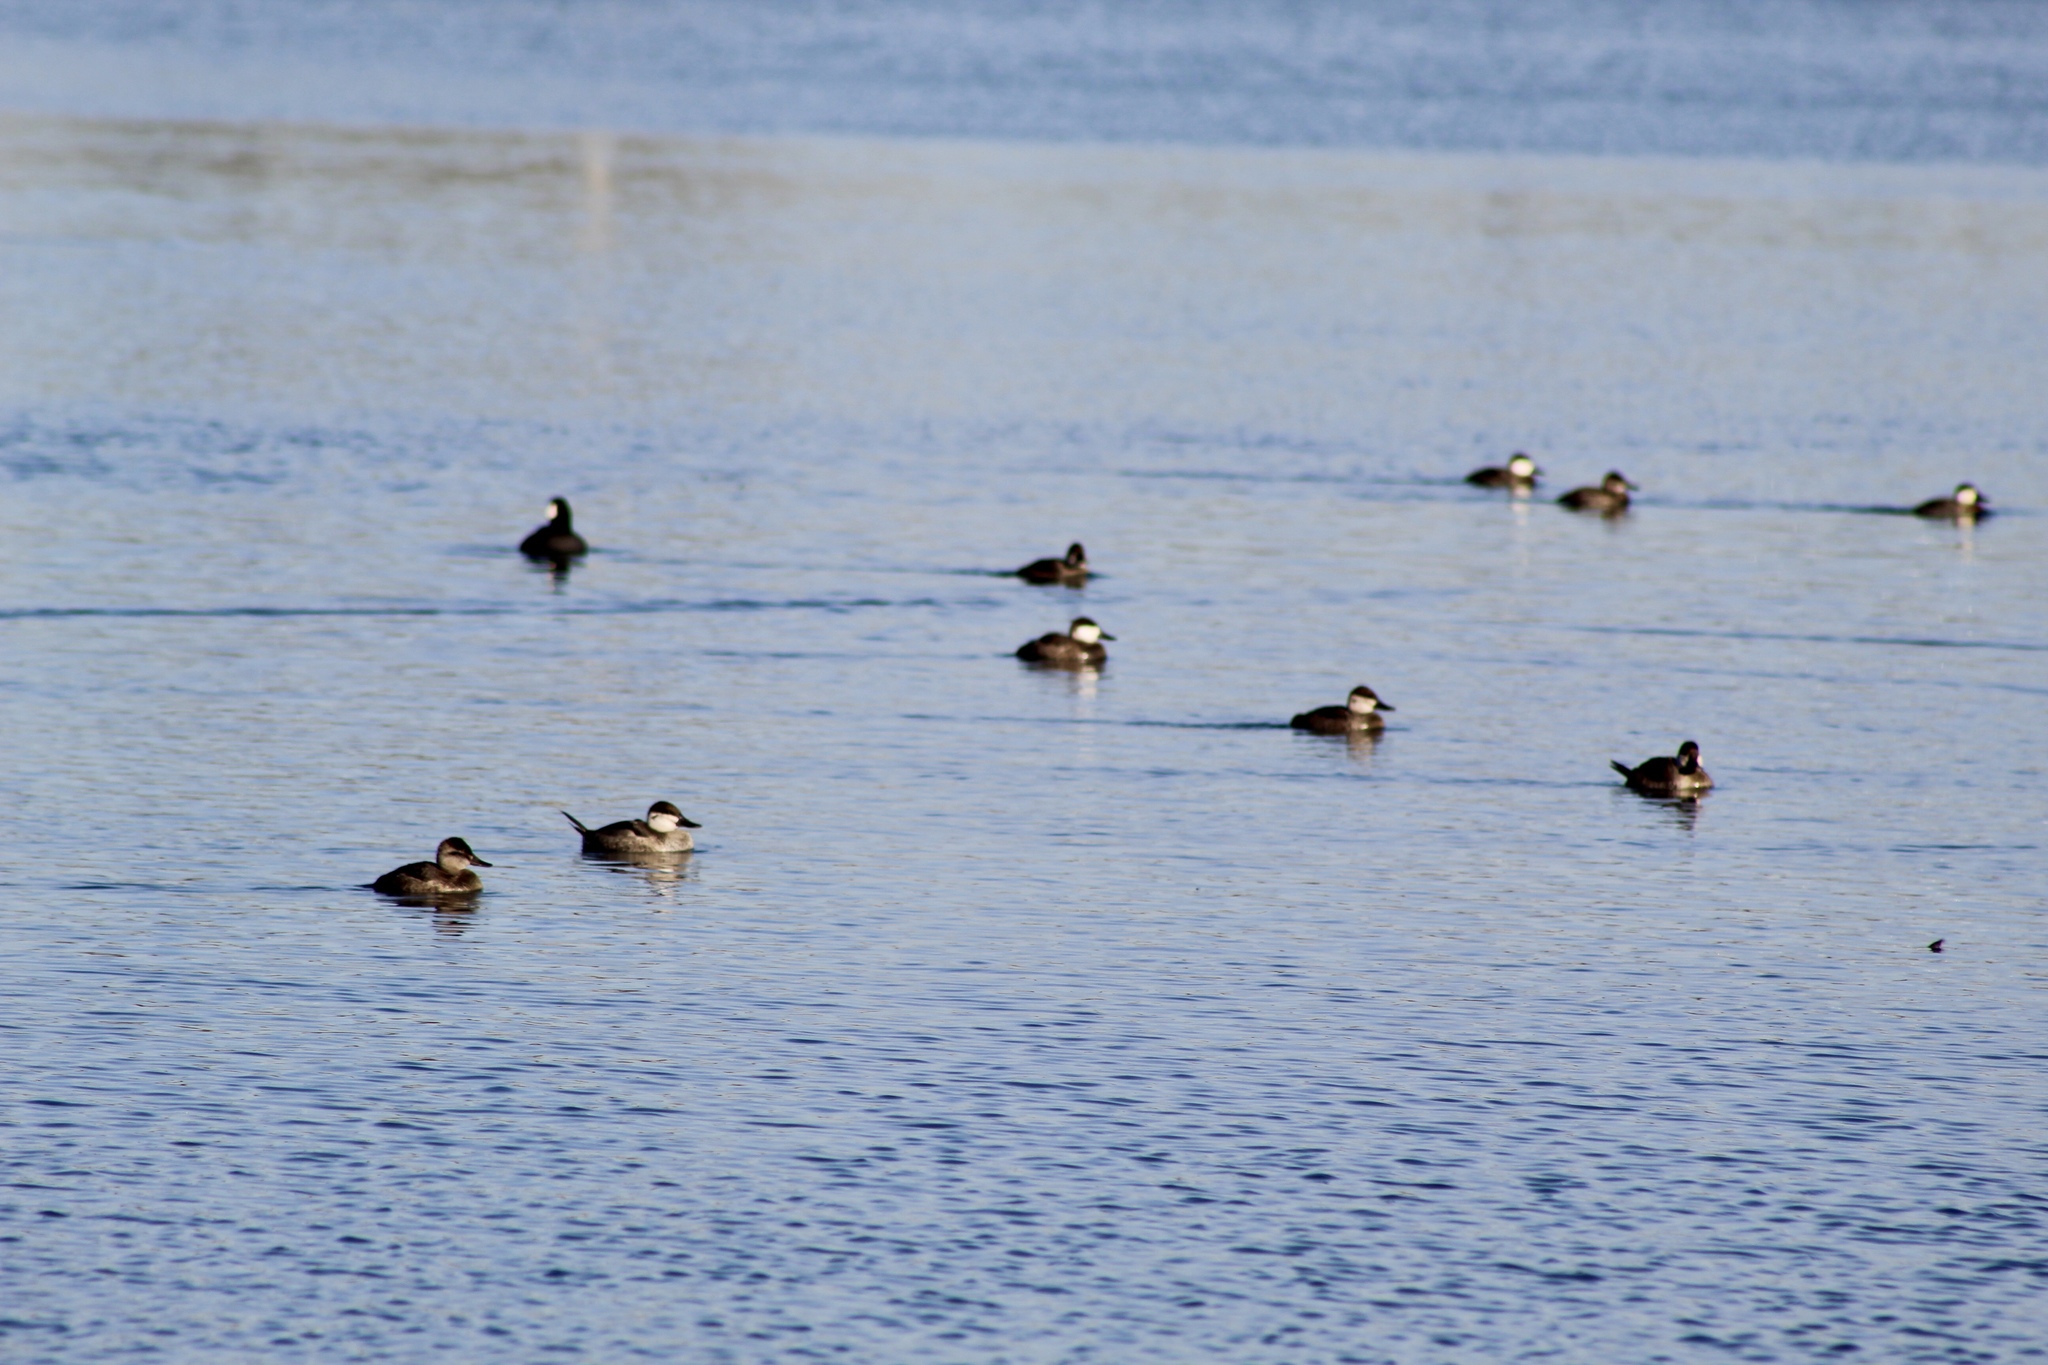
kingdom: Animalia
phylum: Chordata
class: Aves
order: Anseriformes
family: Anatidae
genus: Oxyura
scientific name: Oxyura jamaicensis
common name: Ruddy duck
